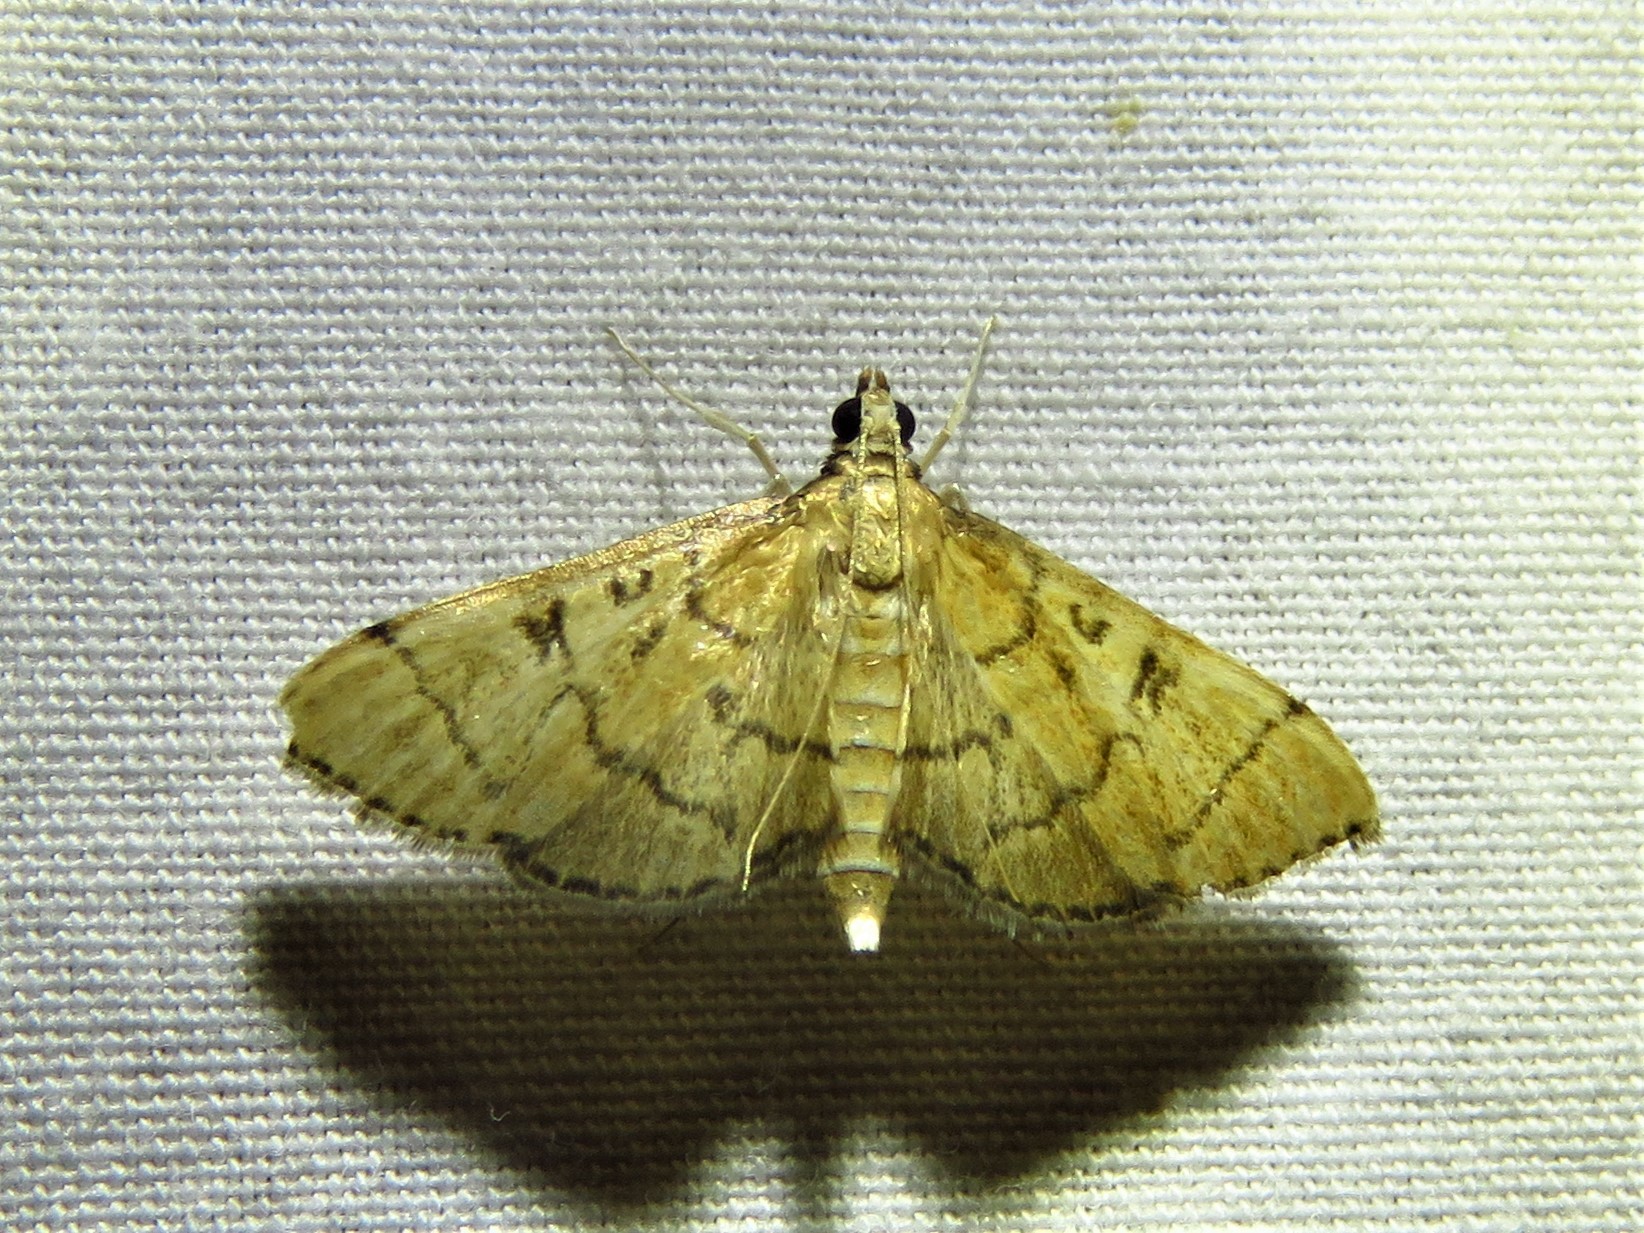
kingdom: Animalia
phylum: Arthropoda
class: Insecta
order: Lepidoptera
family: Crambidae
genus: Lamprosema
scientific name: Lamprosema Blepharomastix ranalis
